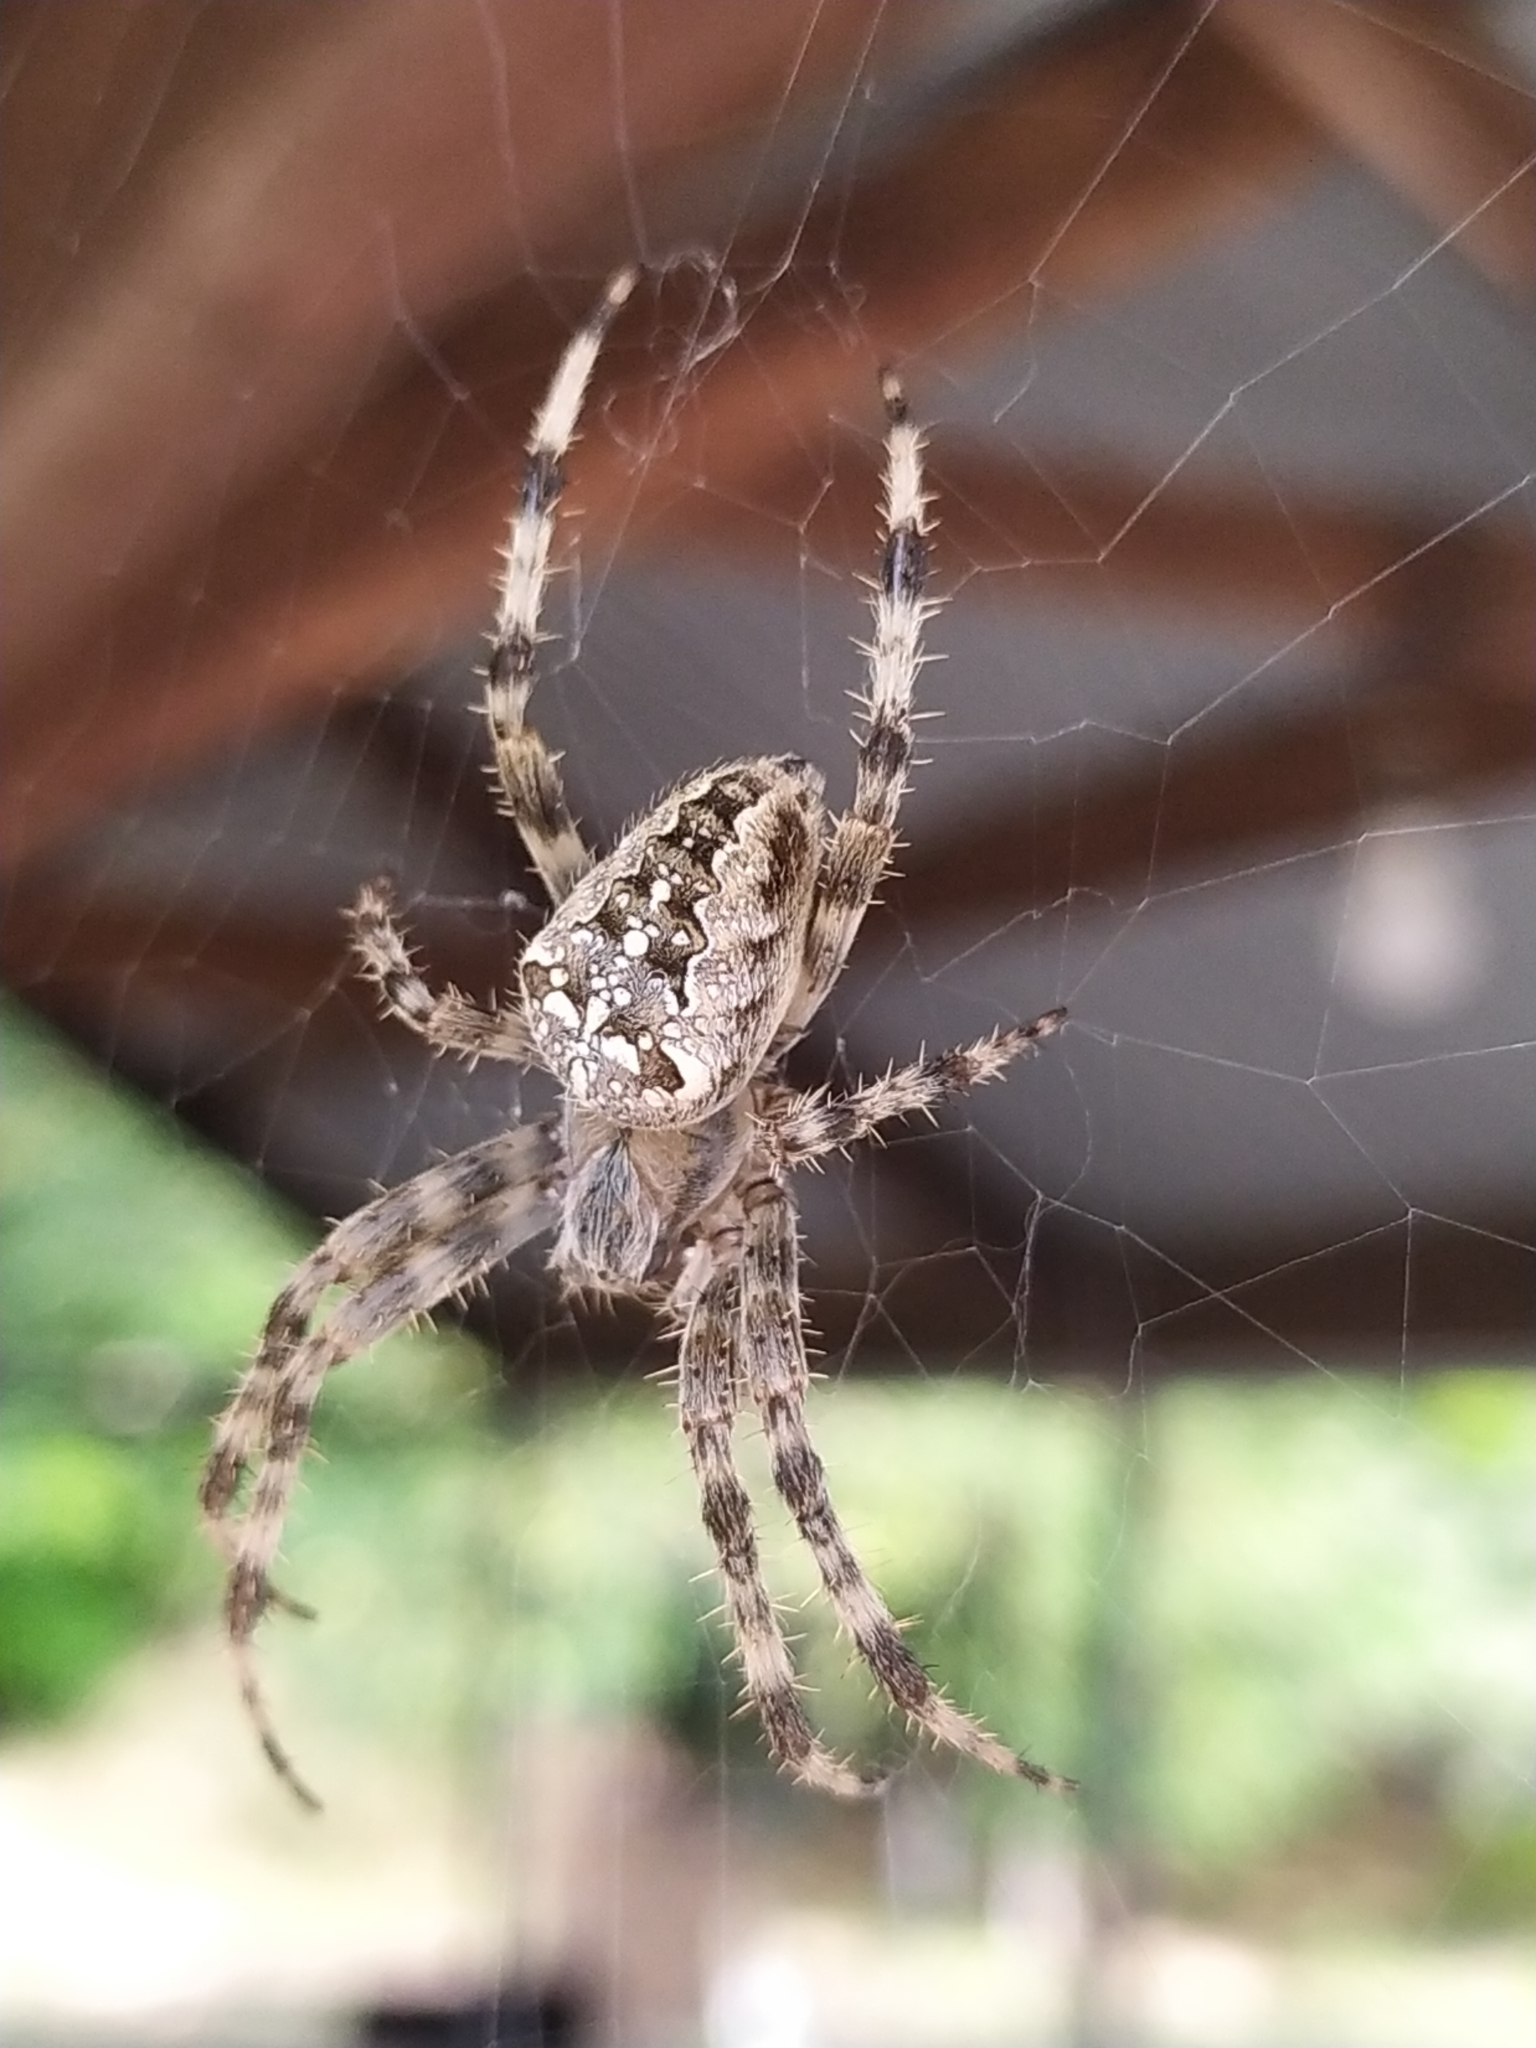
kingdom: Animalia
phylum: Arthropoda
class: Arachnida
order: Araneae
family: Araneidae
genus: Araneus
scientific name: Araneus diadematus
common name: Cross orbweaver
